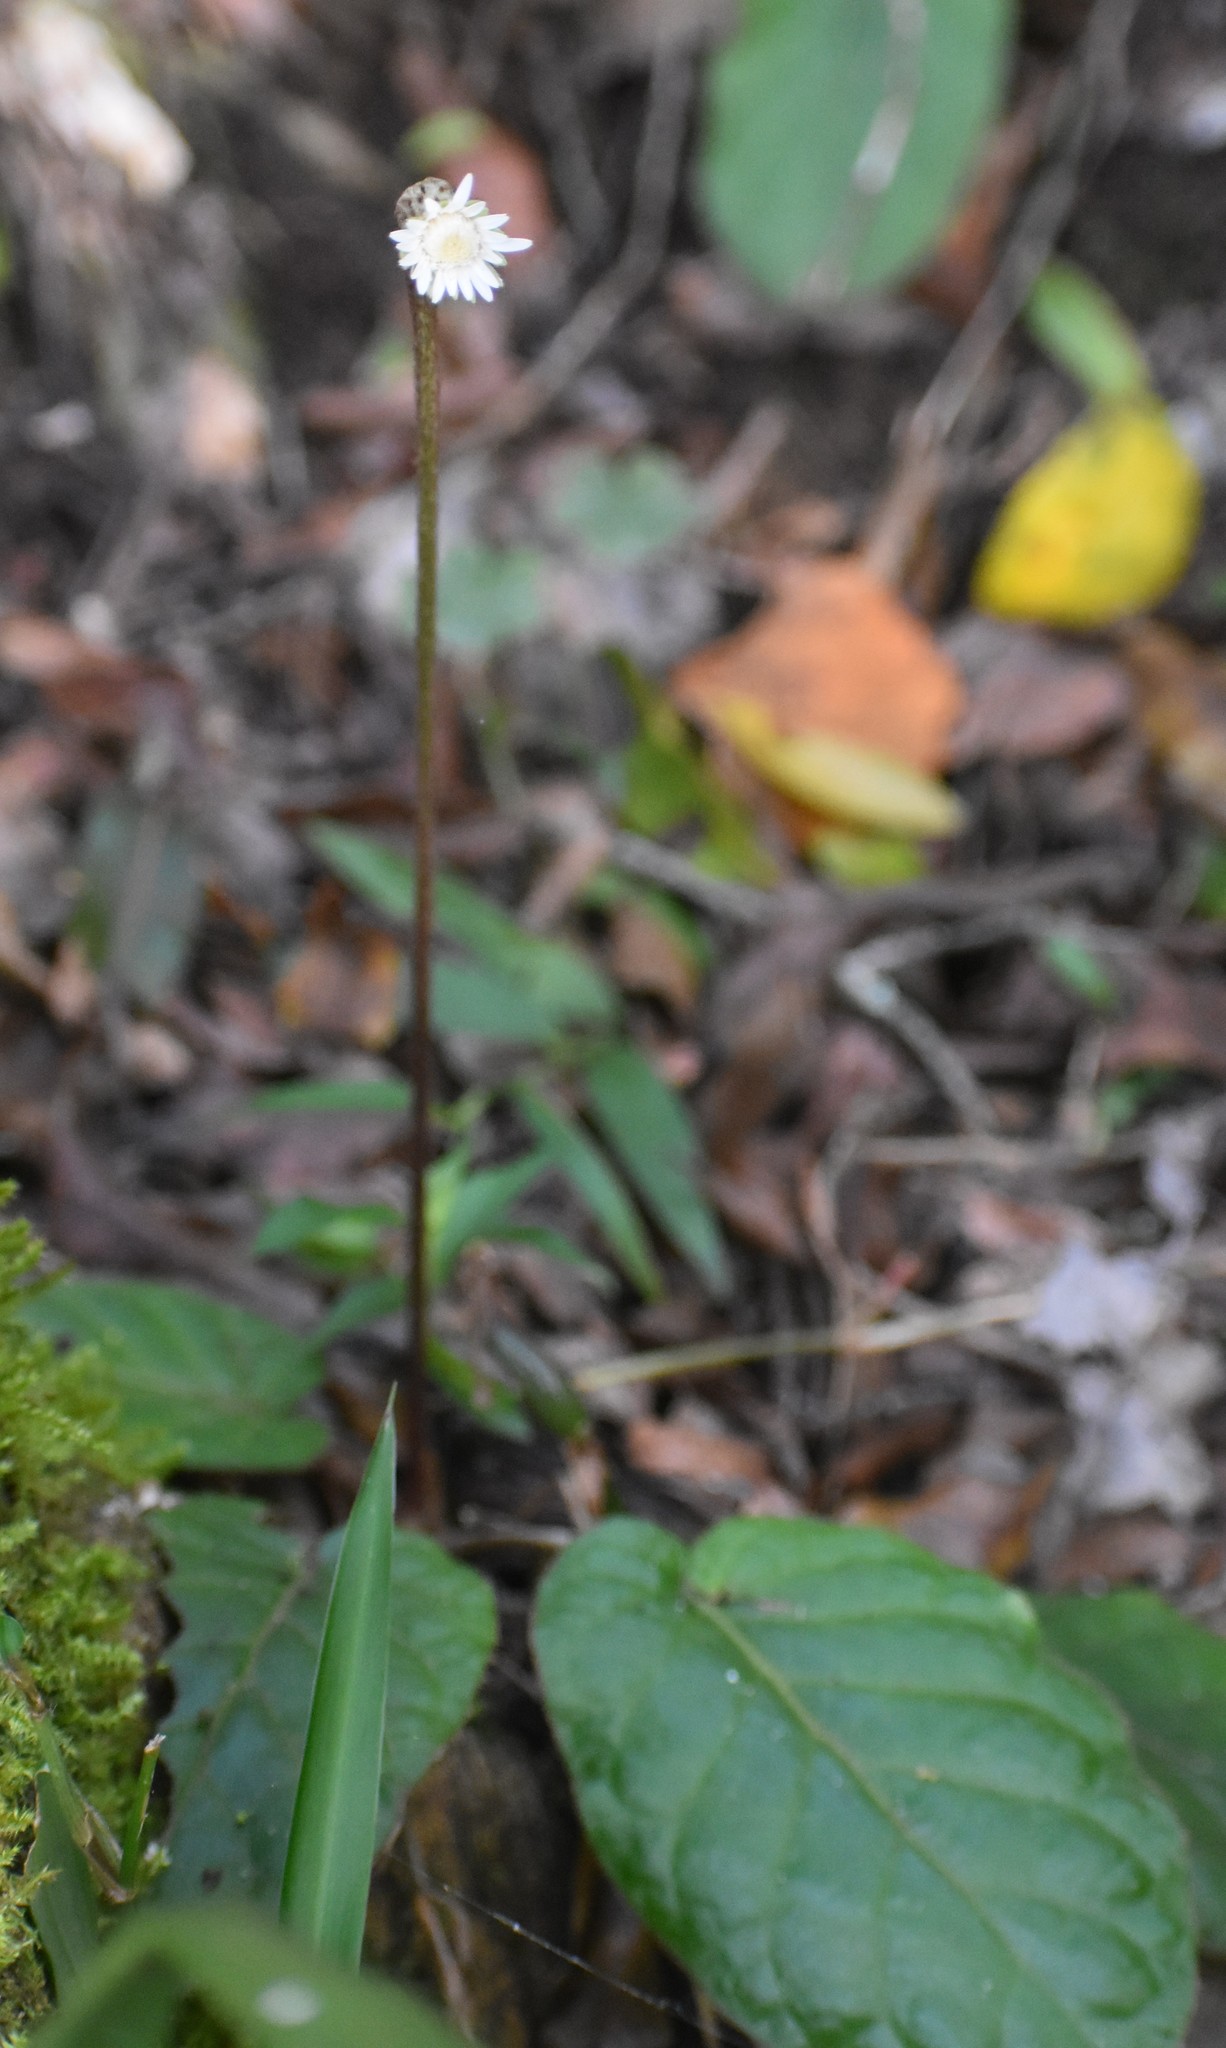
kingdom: Plantae
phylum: Tracheophyta
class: Magnoliopsida
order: Asterales
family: Asteraceae
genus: Piloselloides
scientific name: Piloselloides cordata
